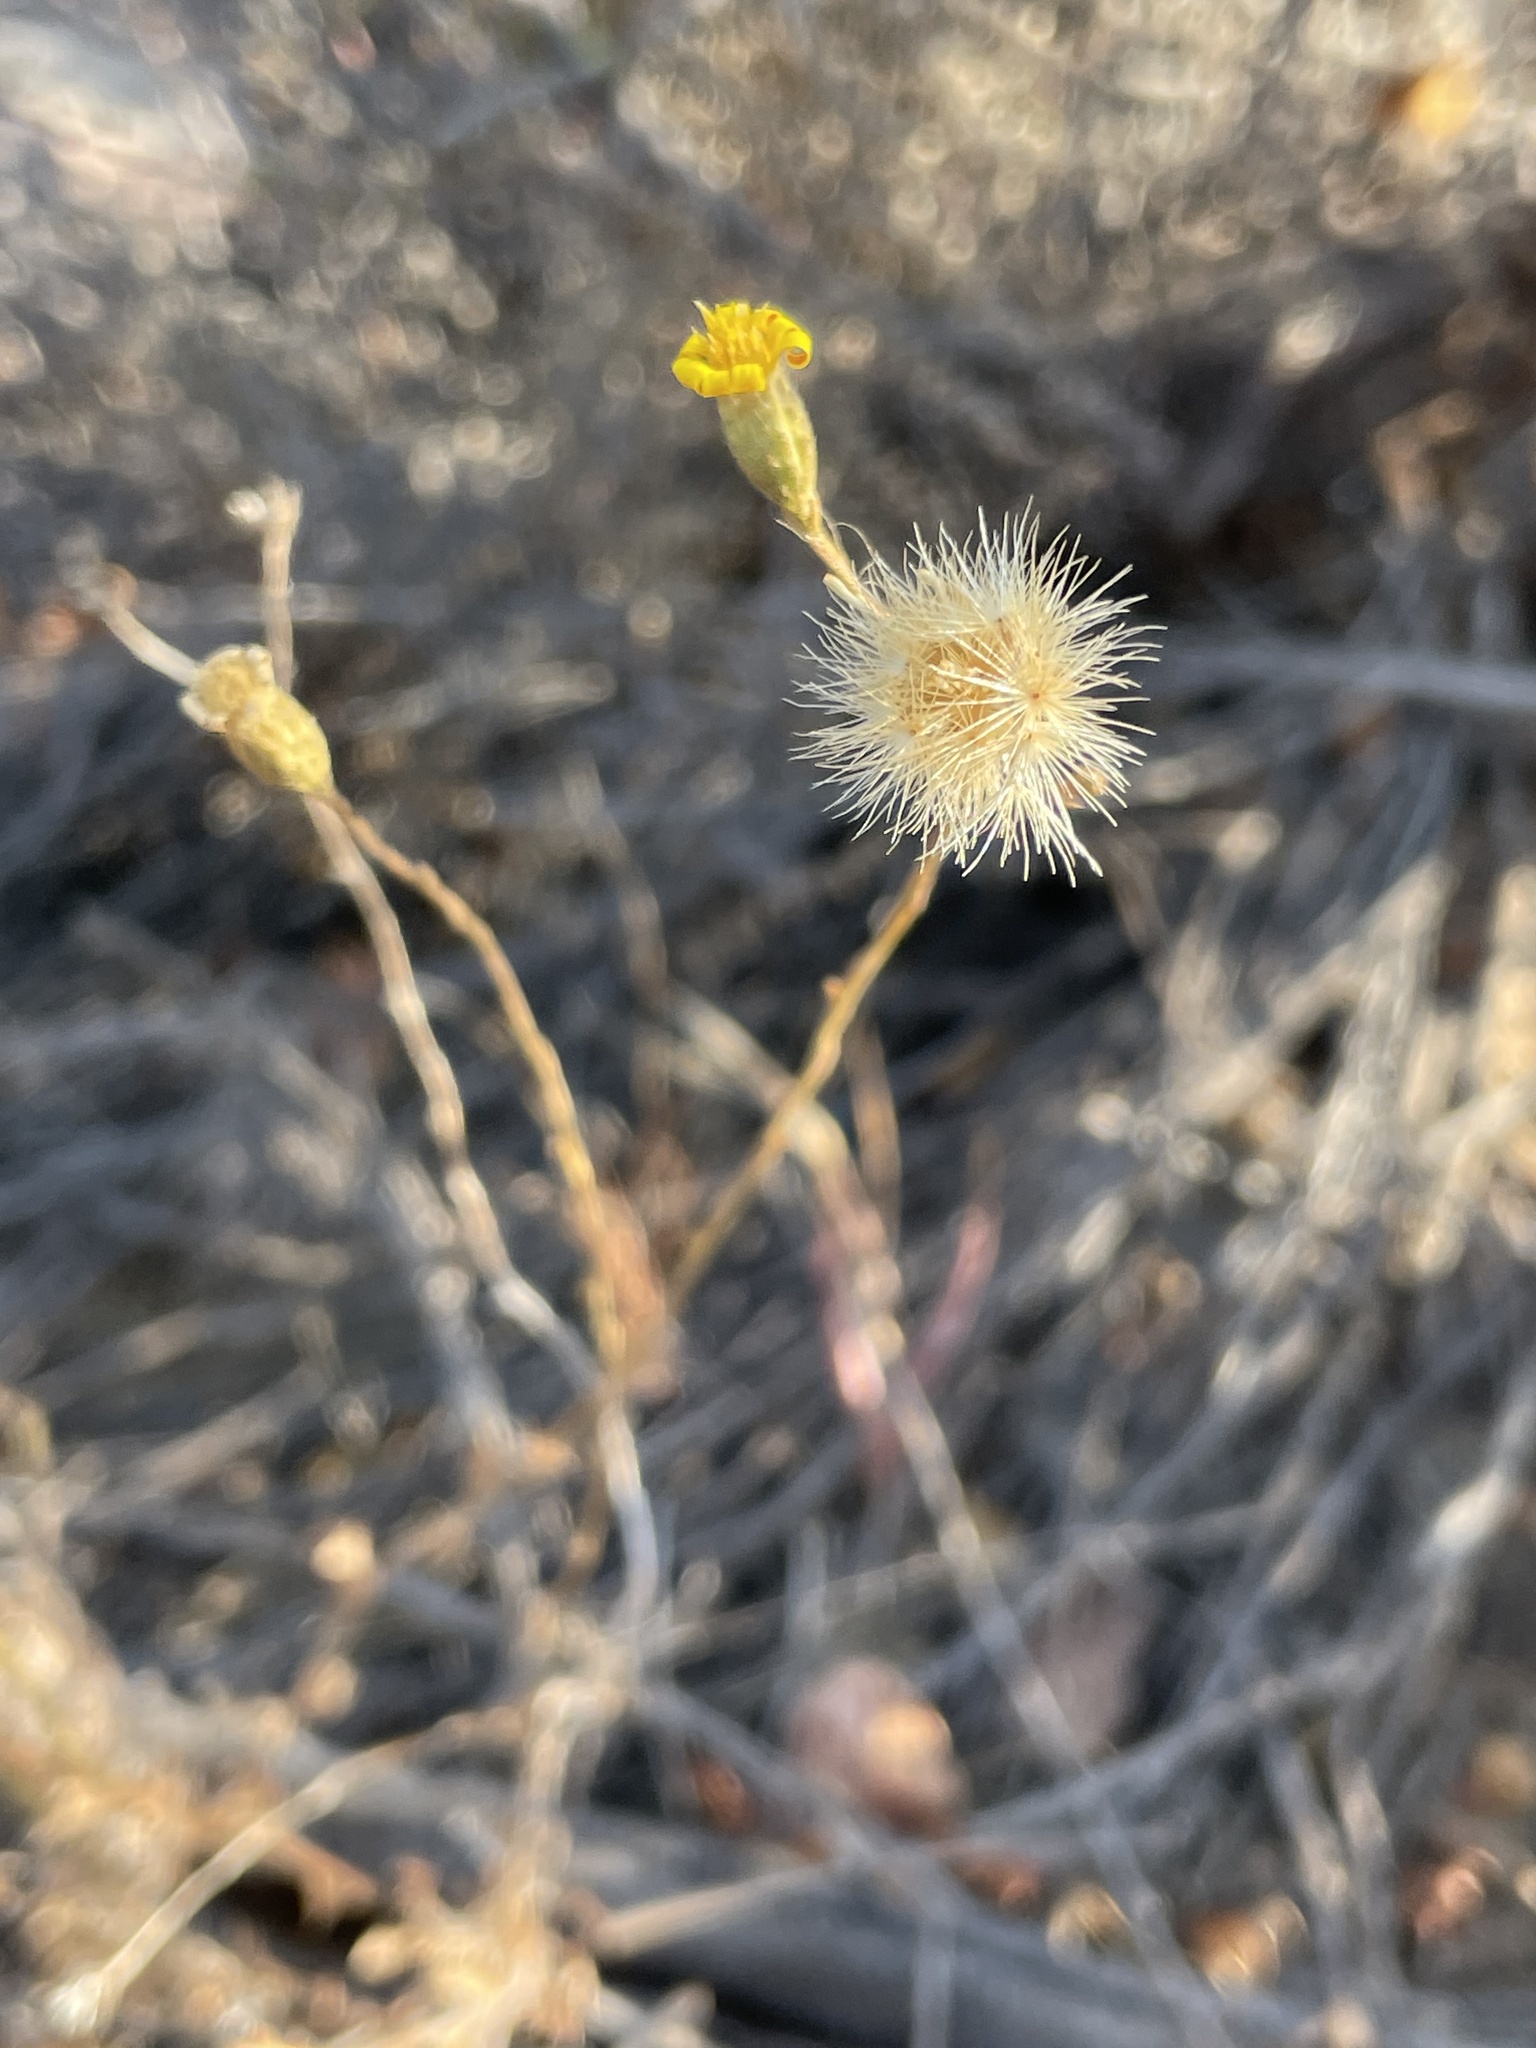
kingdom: Plantae
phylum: Tracheophyta
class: Magnoliopsida
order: Asterales
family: Asteraceae
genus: Xanthisma
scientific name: Xanthisma junceum
